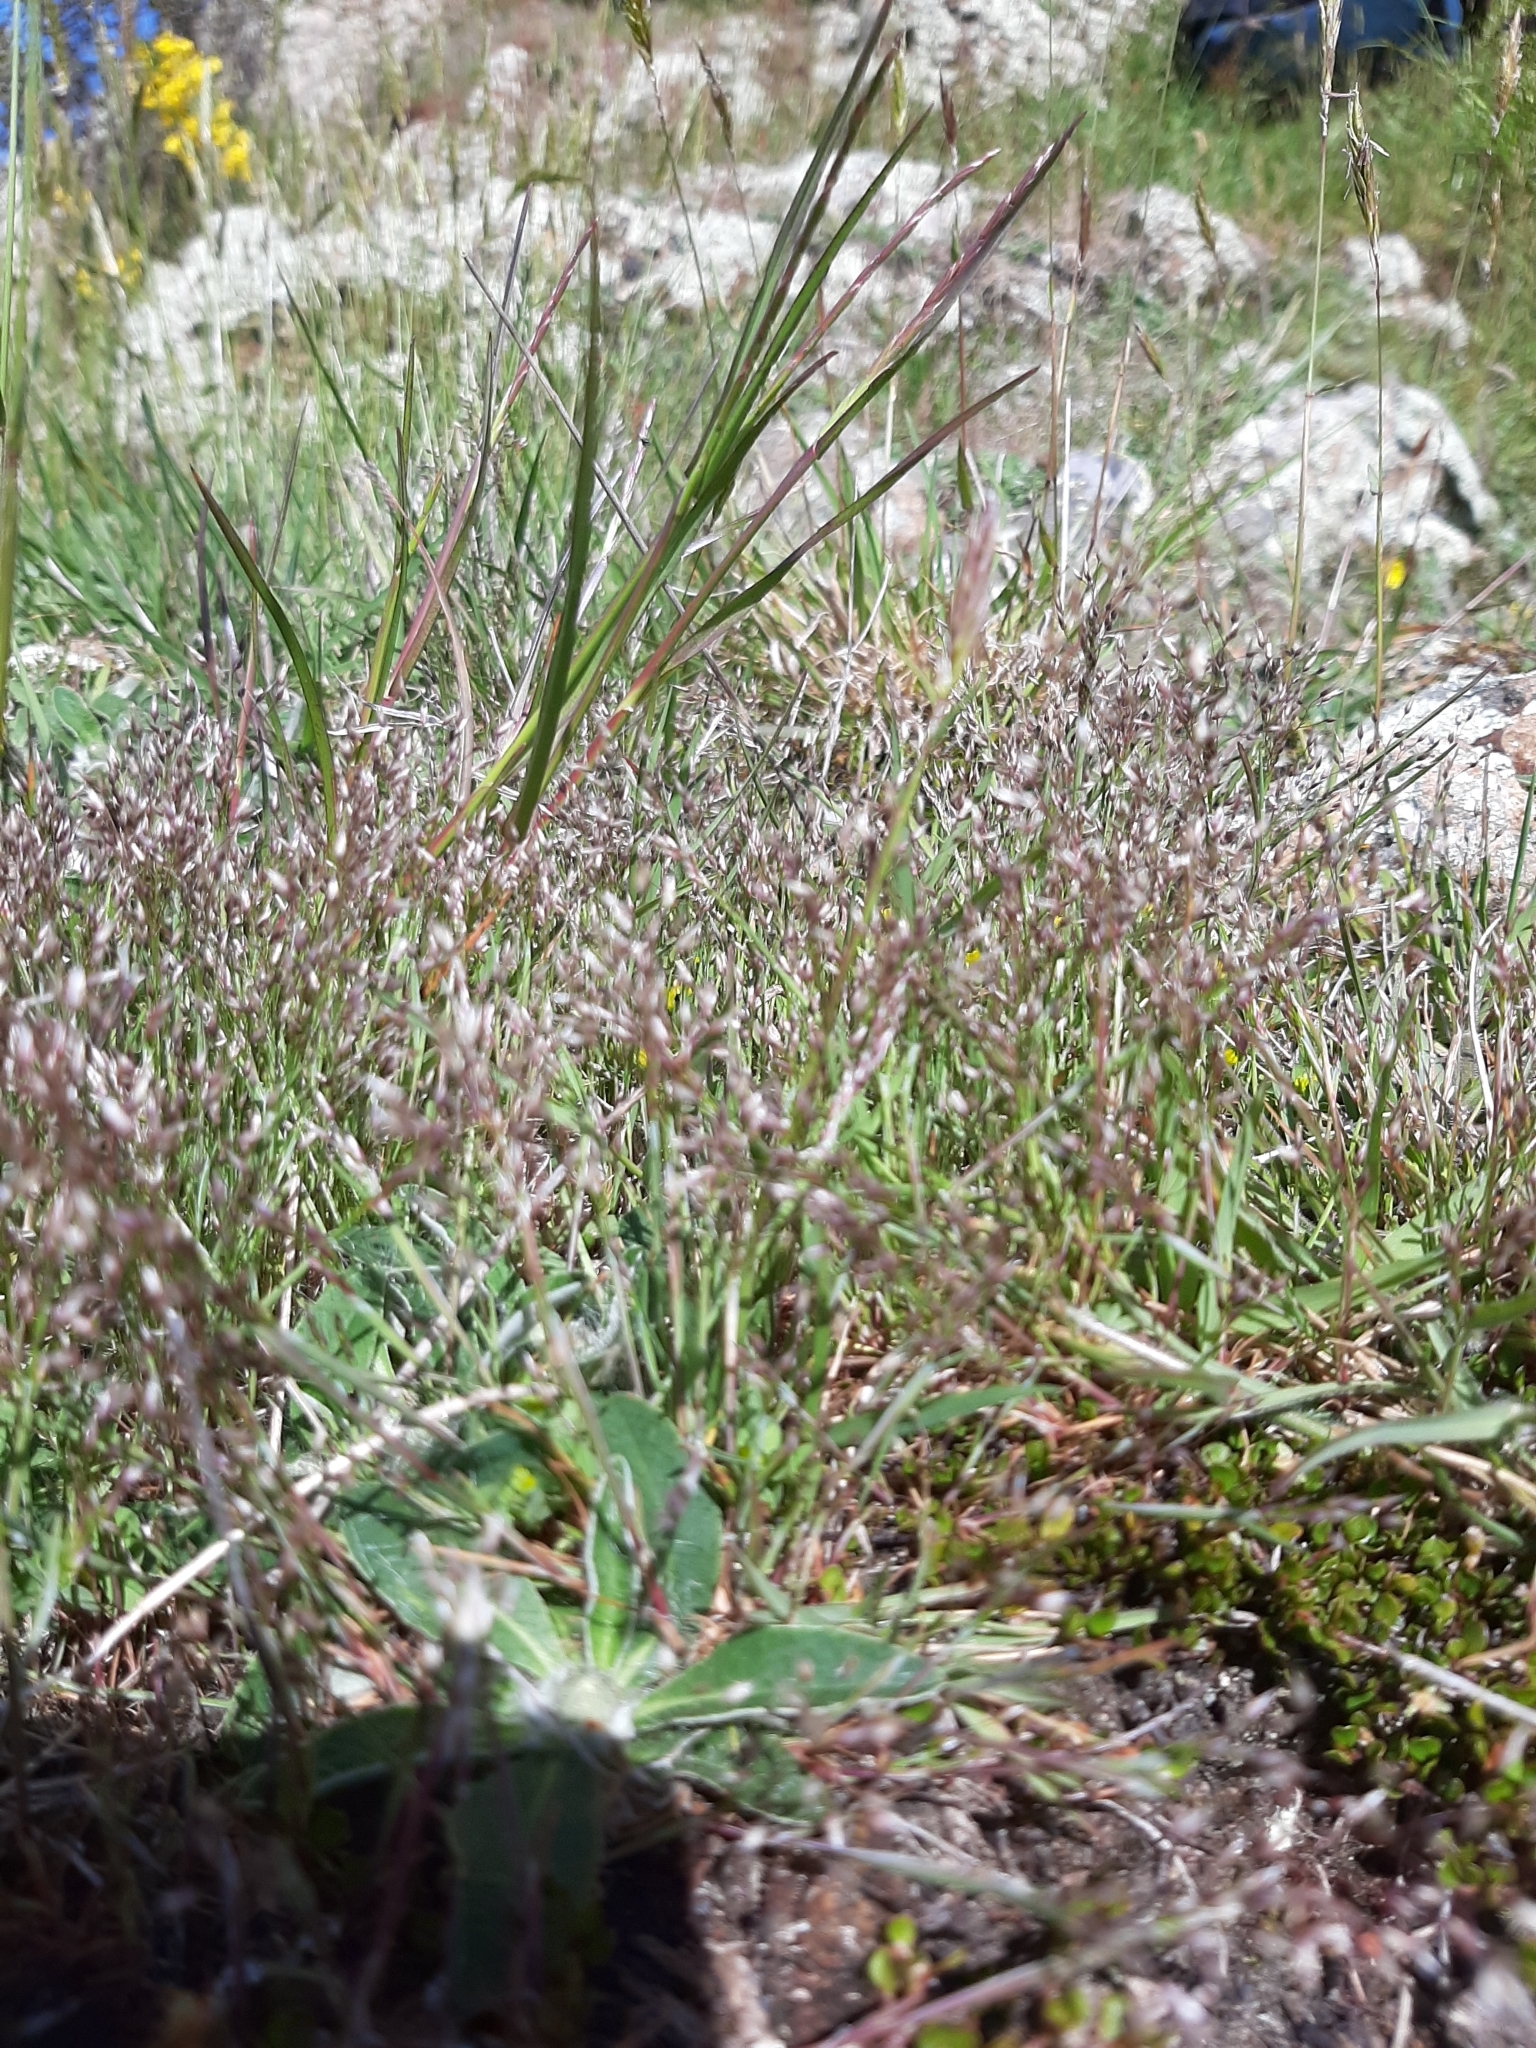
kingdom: Plantae
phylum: Tracheophyta
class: Liliopsida
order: Poales
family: Poaceae
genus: Aira
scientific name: Aira caryophyllea
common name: Silver hairgrass
